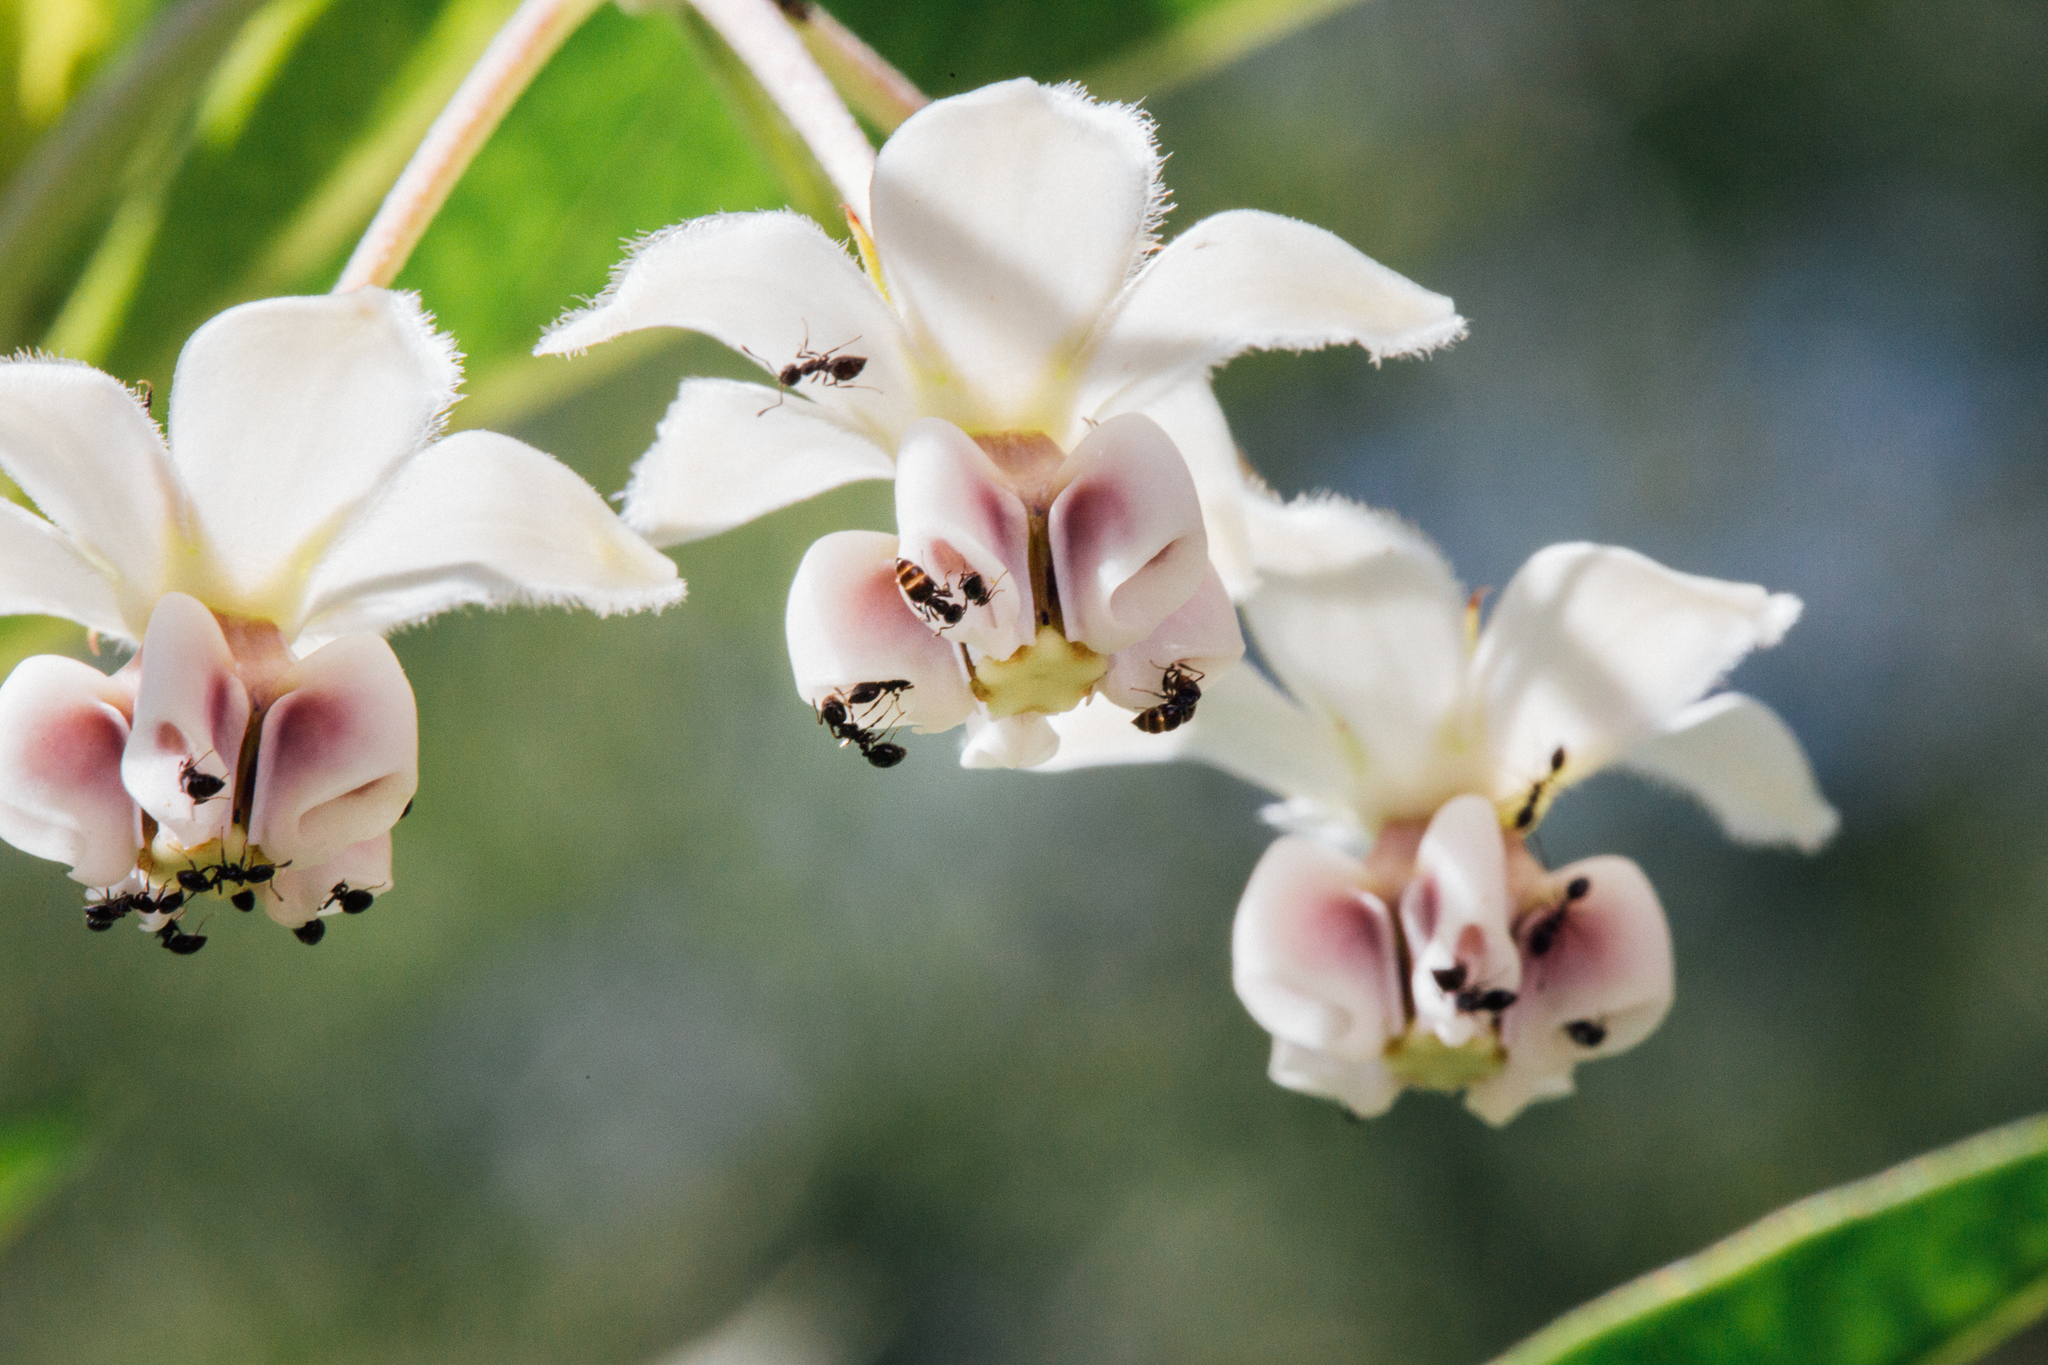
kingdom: Animalia
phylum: Arthropoda
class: Insecta
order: Hymenoptera
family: Formicidae
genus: Monomorium
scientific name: Monomorium minimum
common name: Little black ant
